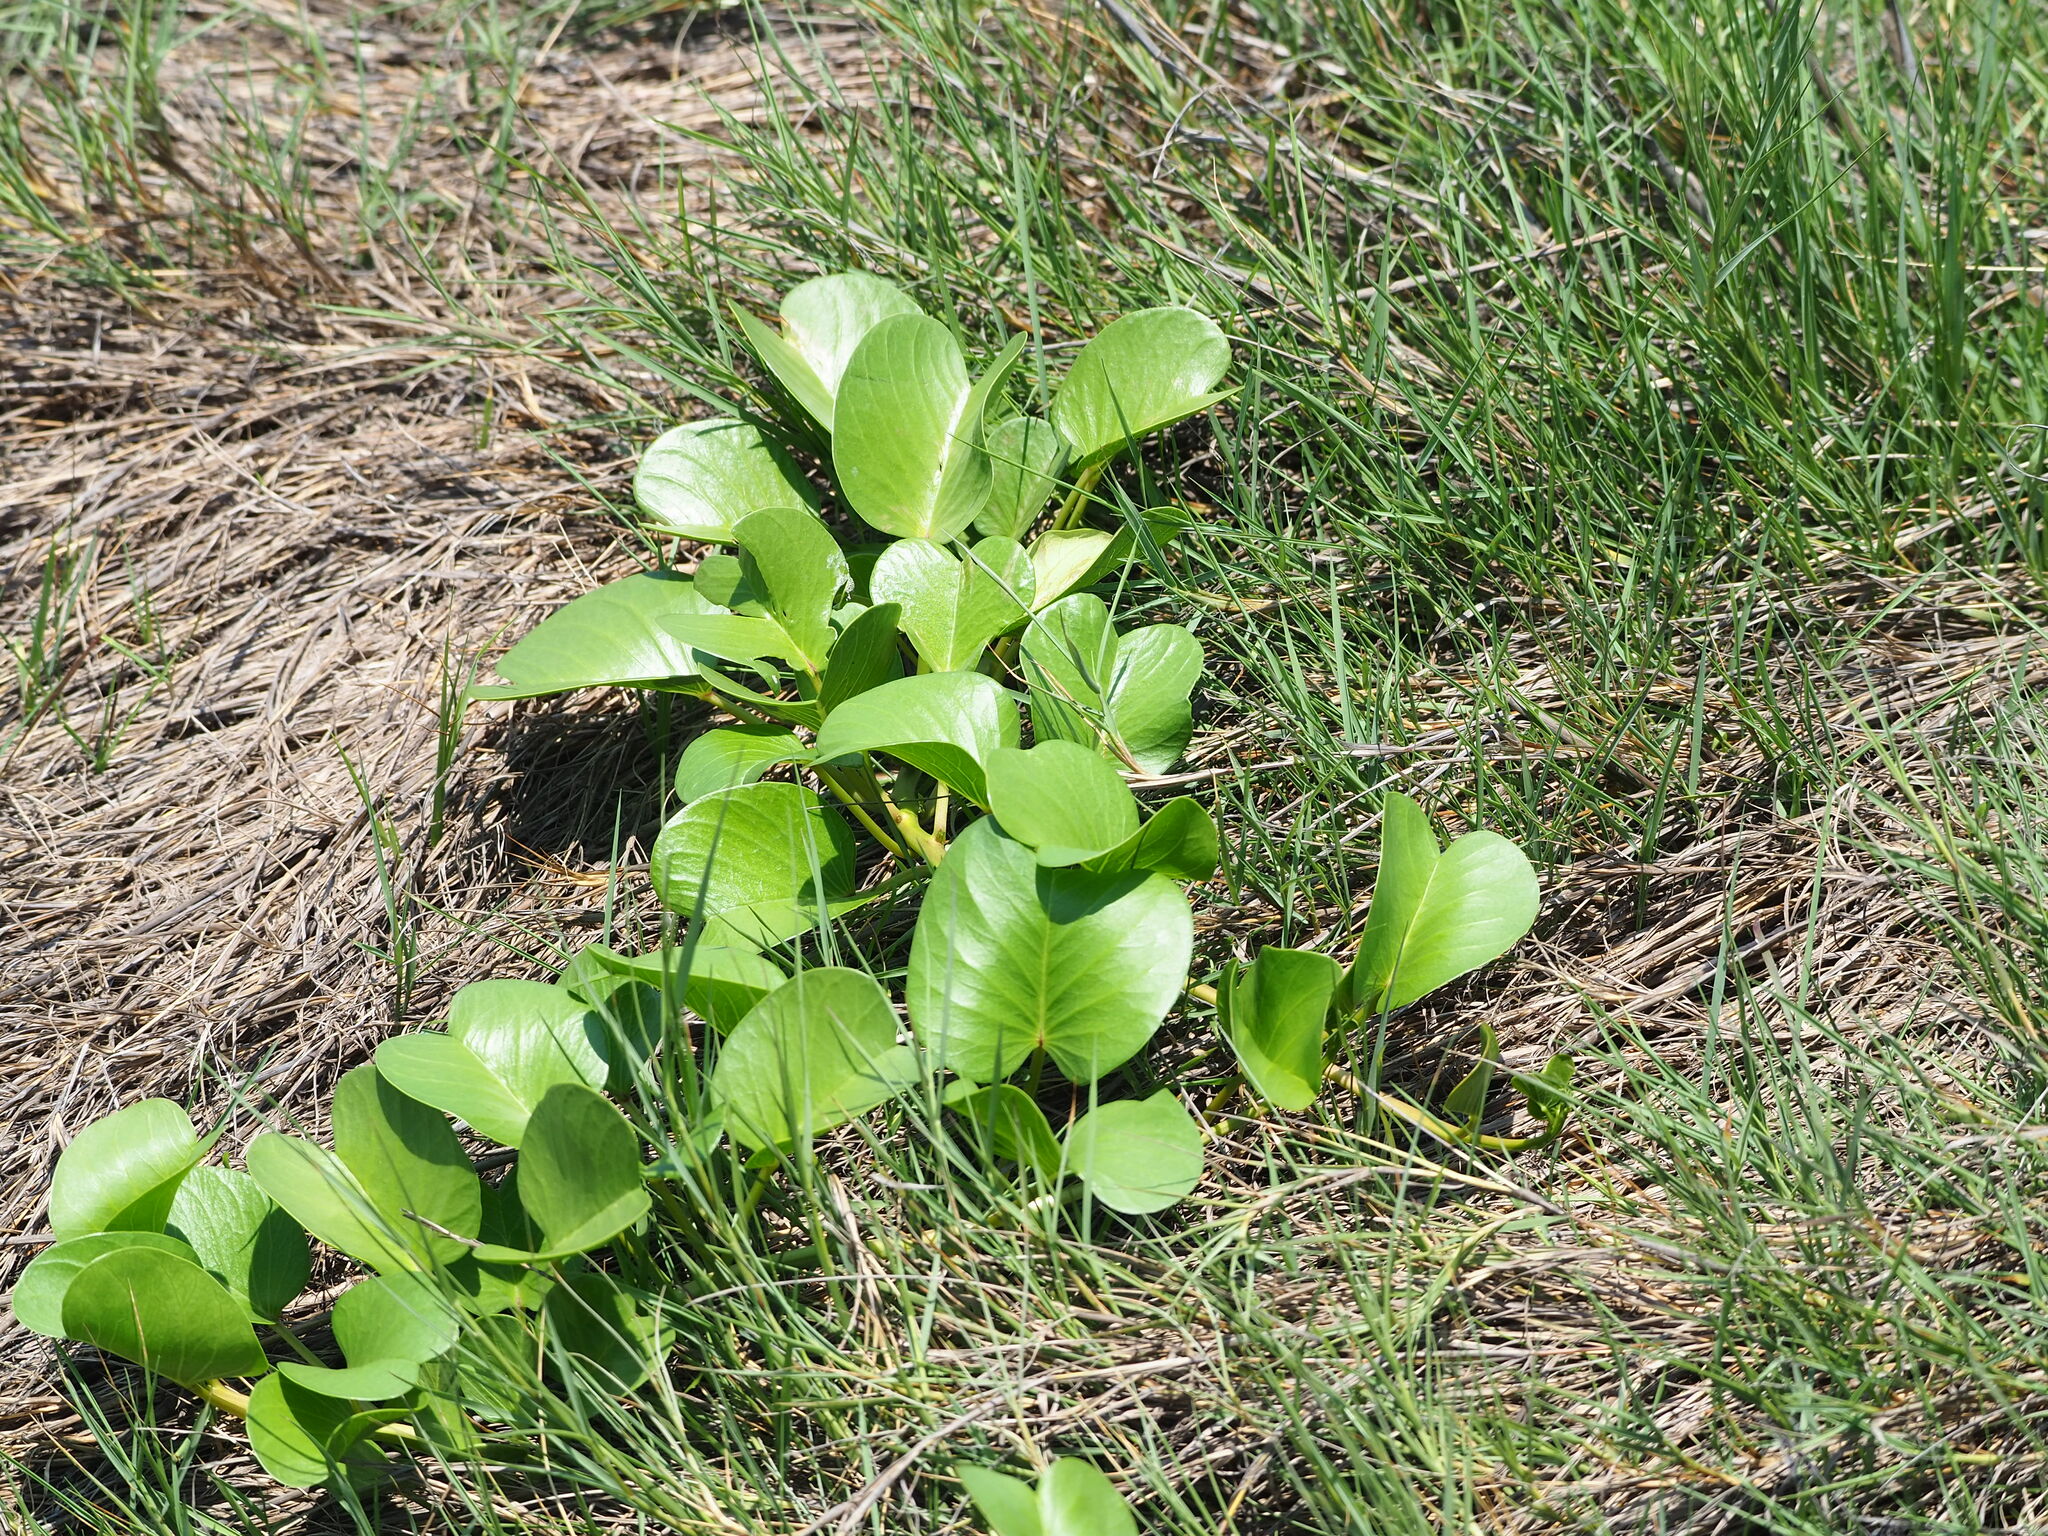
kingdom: Plantae
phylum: Tracheophyta
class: Magnoliopsida
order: Solanales
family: Convolvulaceae
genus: Ipomoea
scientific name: Ipomoea pes-caprae
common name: Beach morning glory
